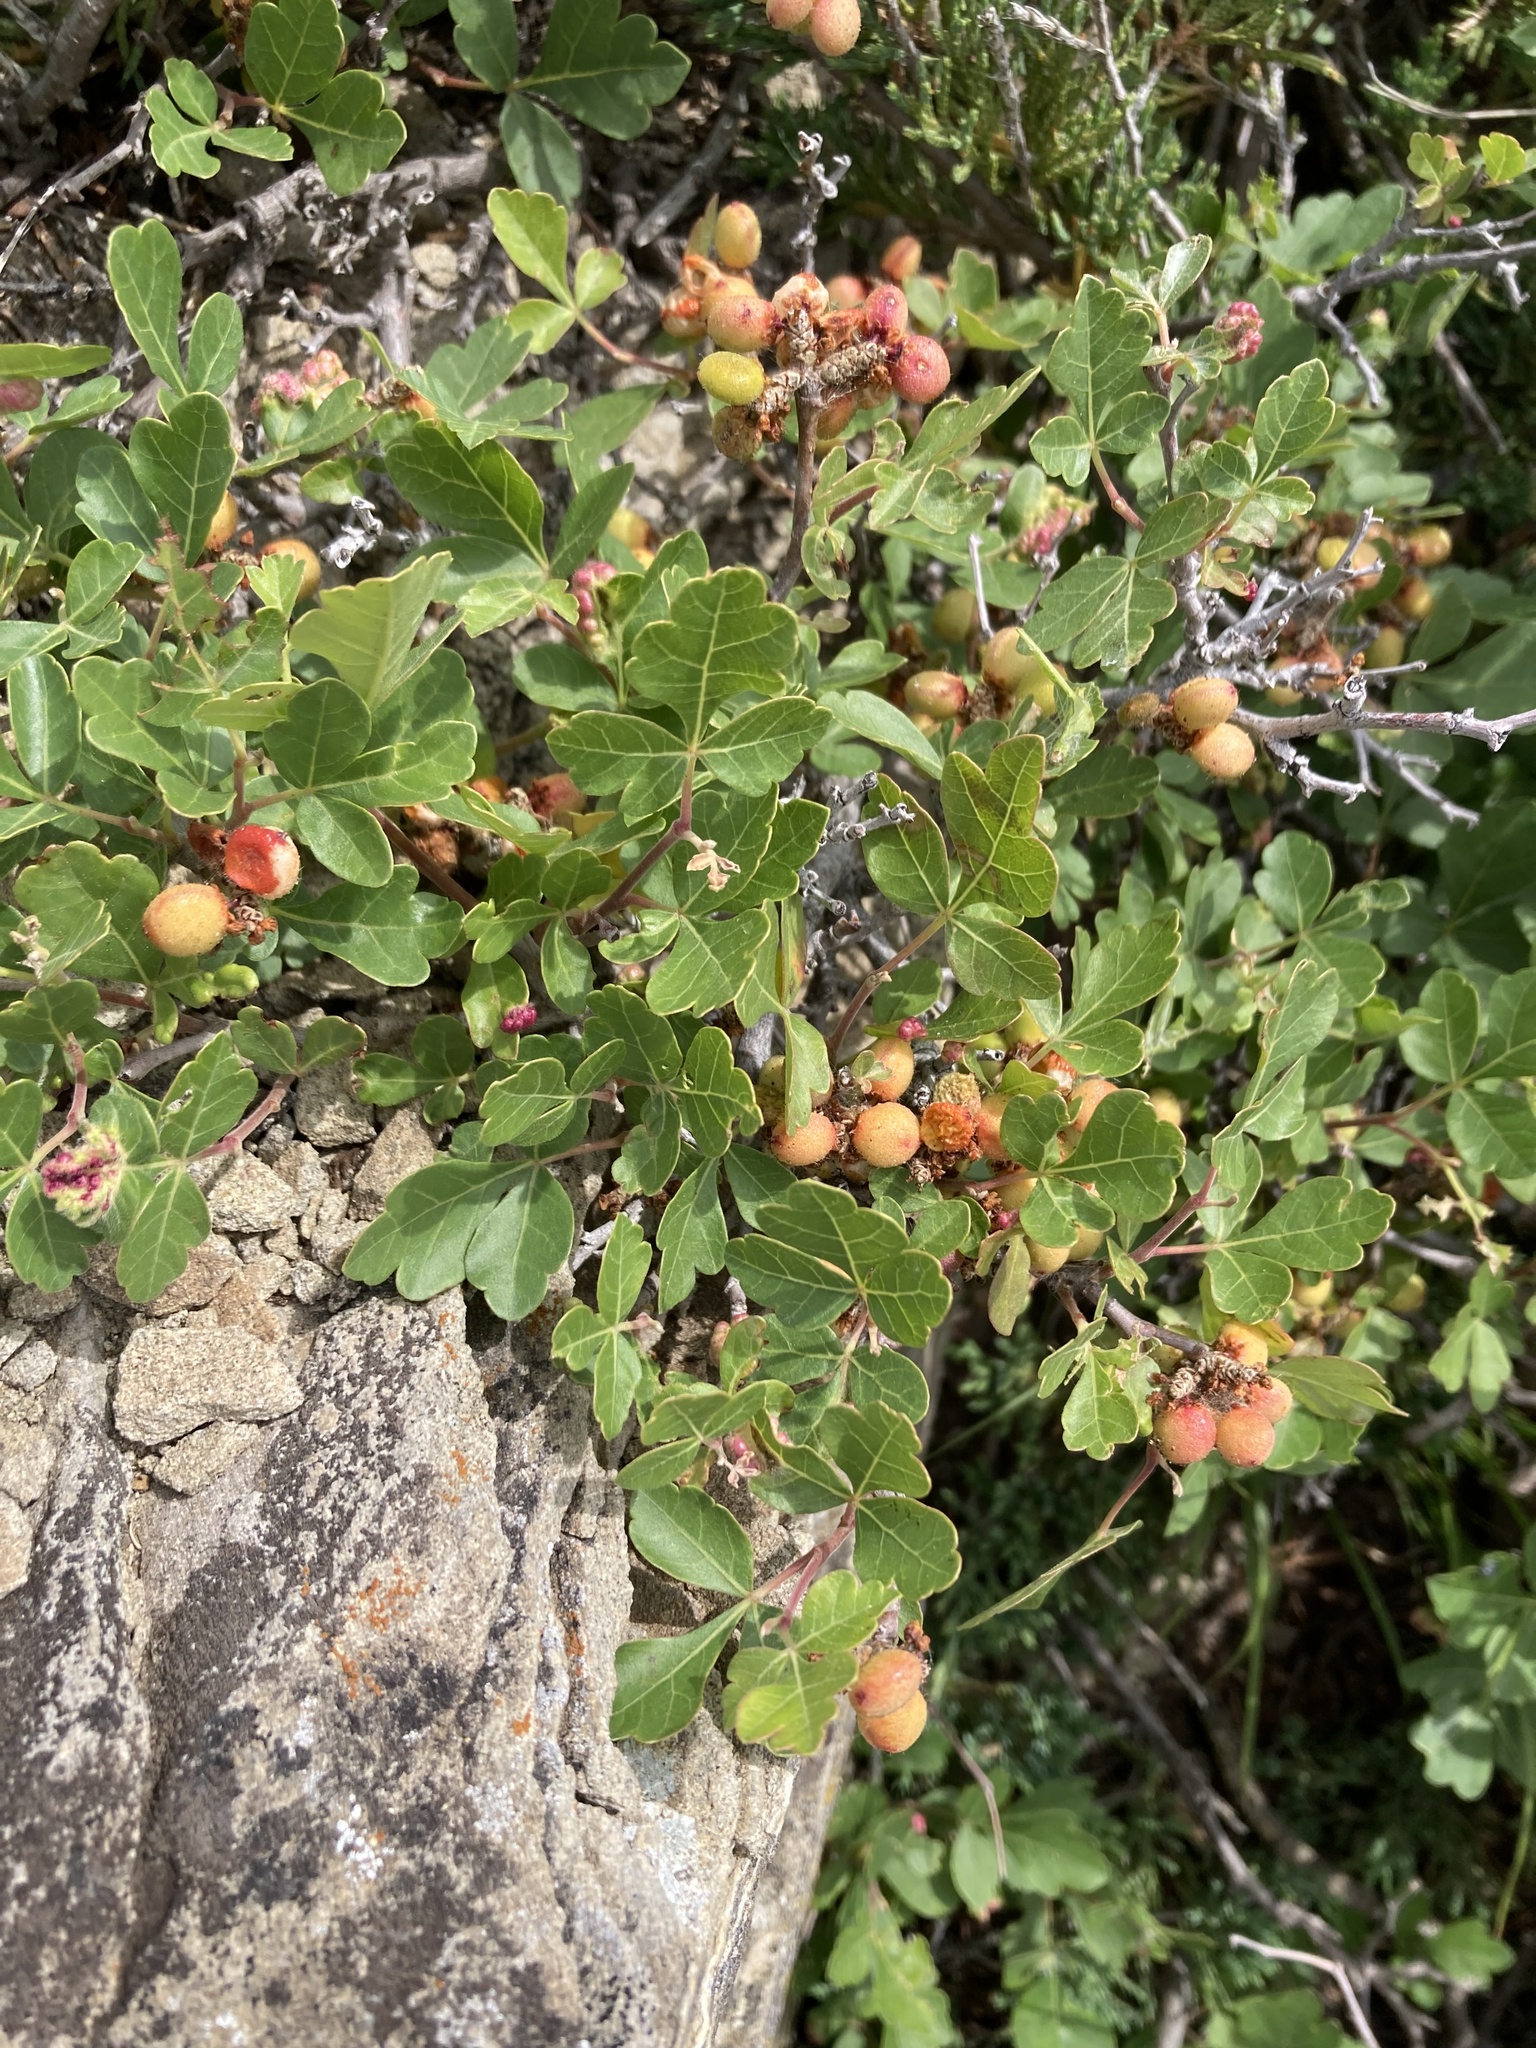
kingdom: Plantae
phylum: Tracheophyta
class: Magnoliopsida
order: Sapindales
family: Anacardiaceae
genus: Rhus
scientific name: Rhus aromatica
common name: Aromatic sumac
